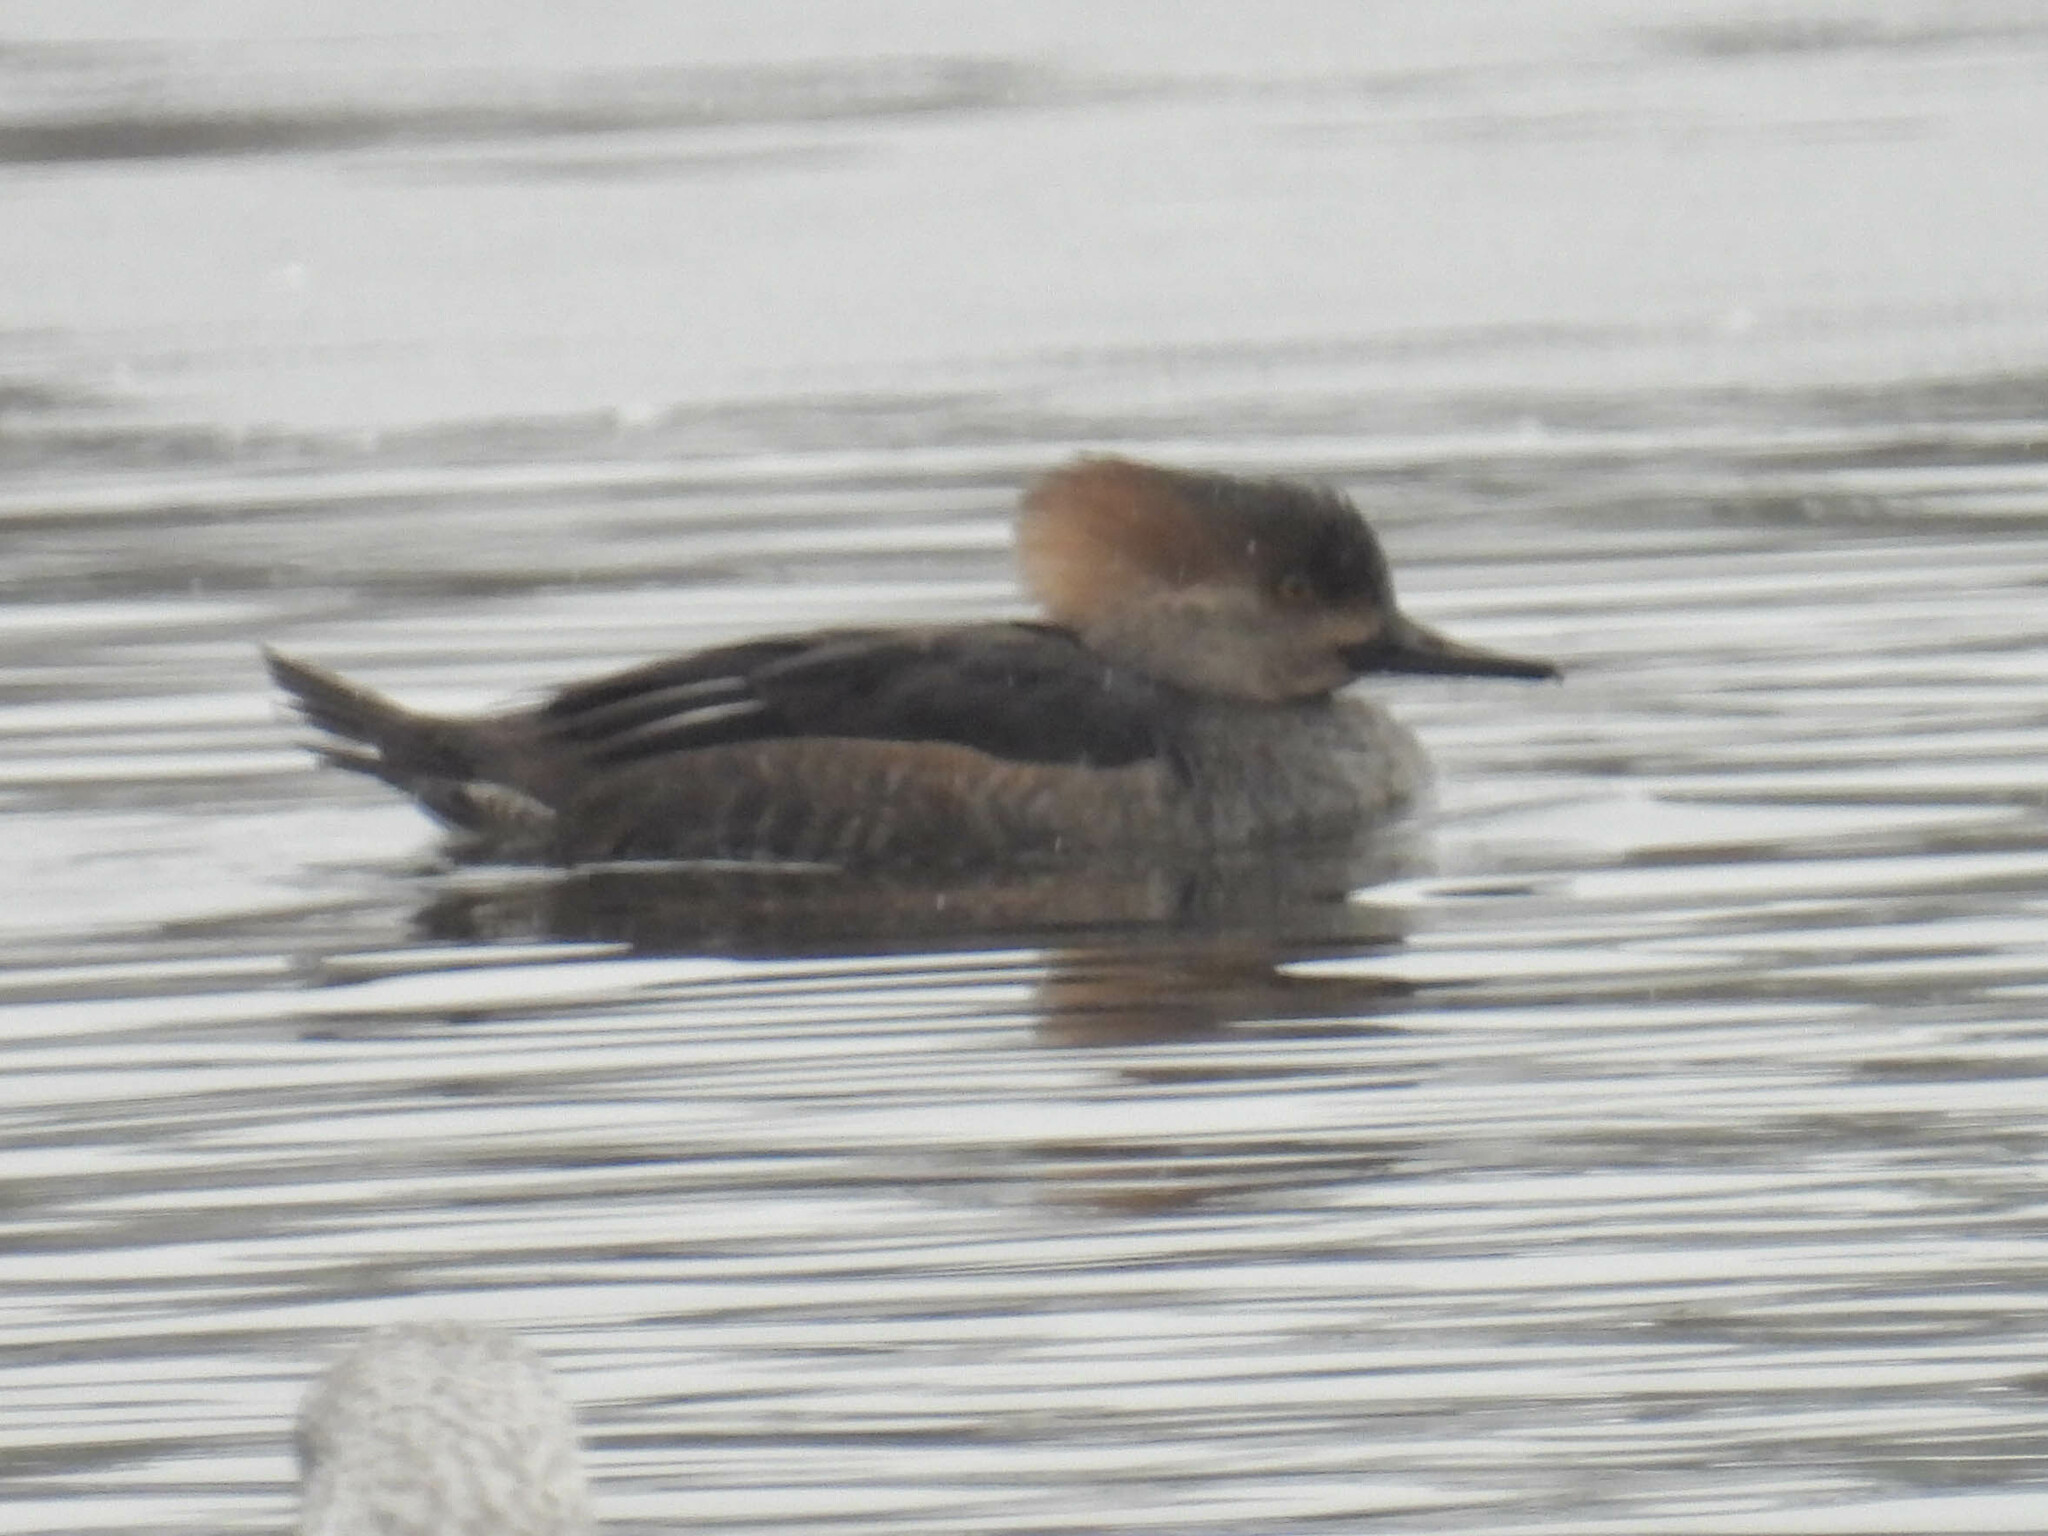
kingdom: Animalia
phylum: Chordata
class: Aves
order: Anseriformes
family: Anatidae
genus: Lophodytes
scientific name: Lophodytes cucullatus
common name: Hooded merganser
